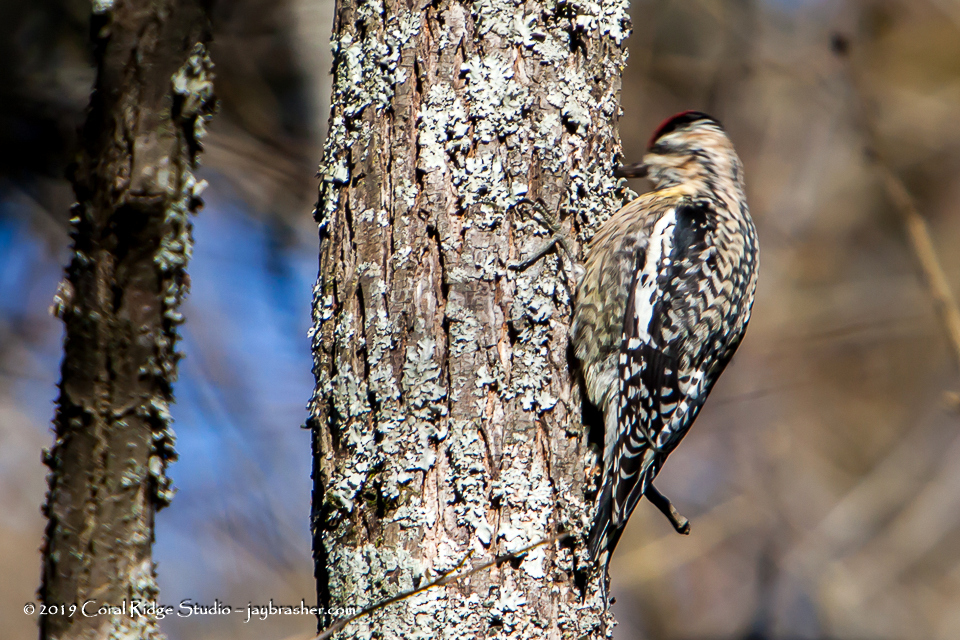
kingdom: Animalia
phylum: Chordata
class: Aves
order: Piciformes
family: Picidae
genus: Sphyrapicus
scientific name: Sphyrapicus varius
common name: Yellow-bellied sapsucker
